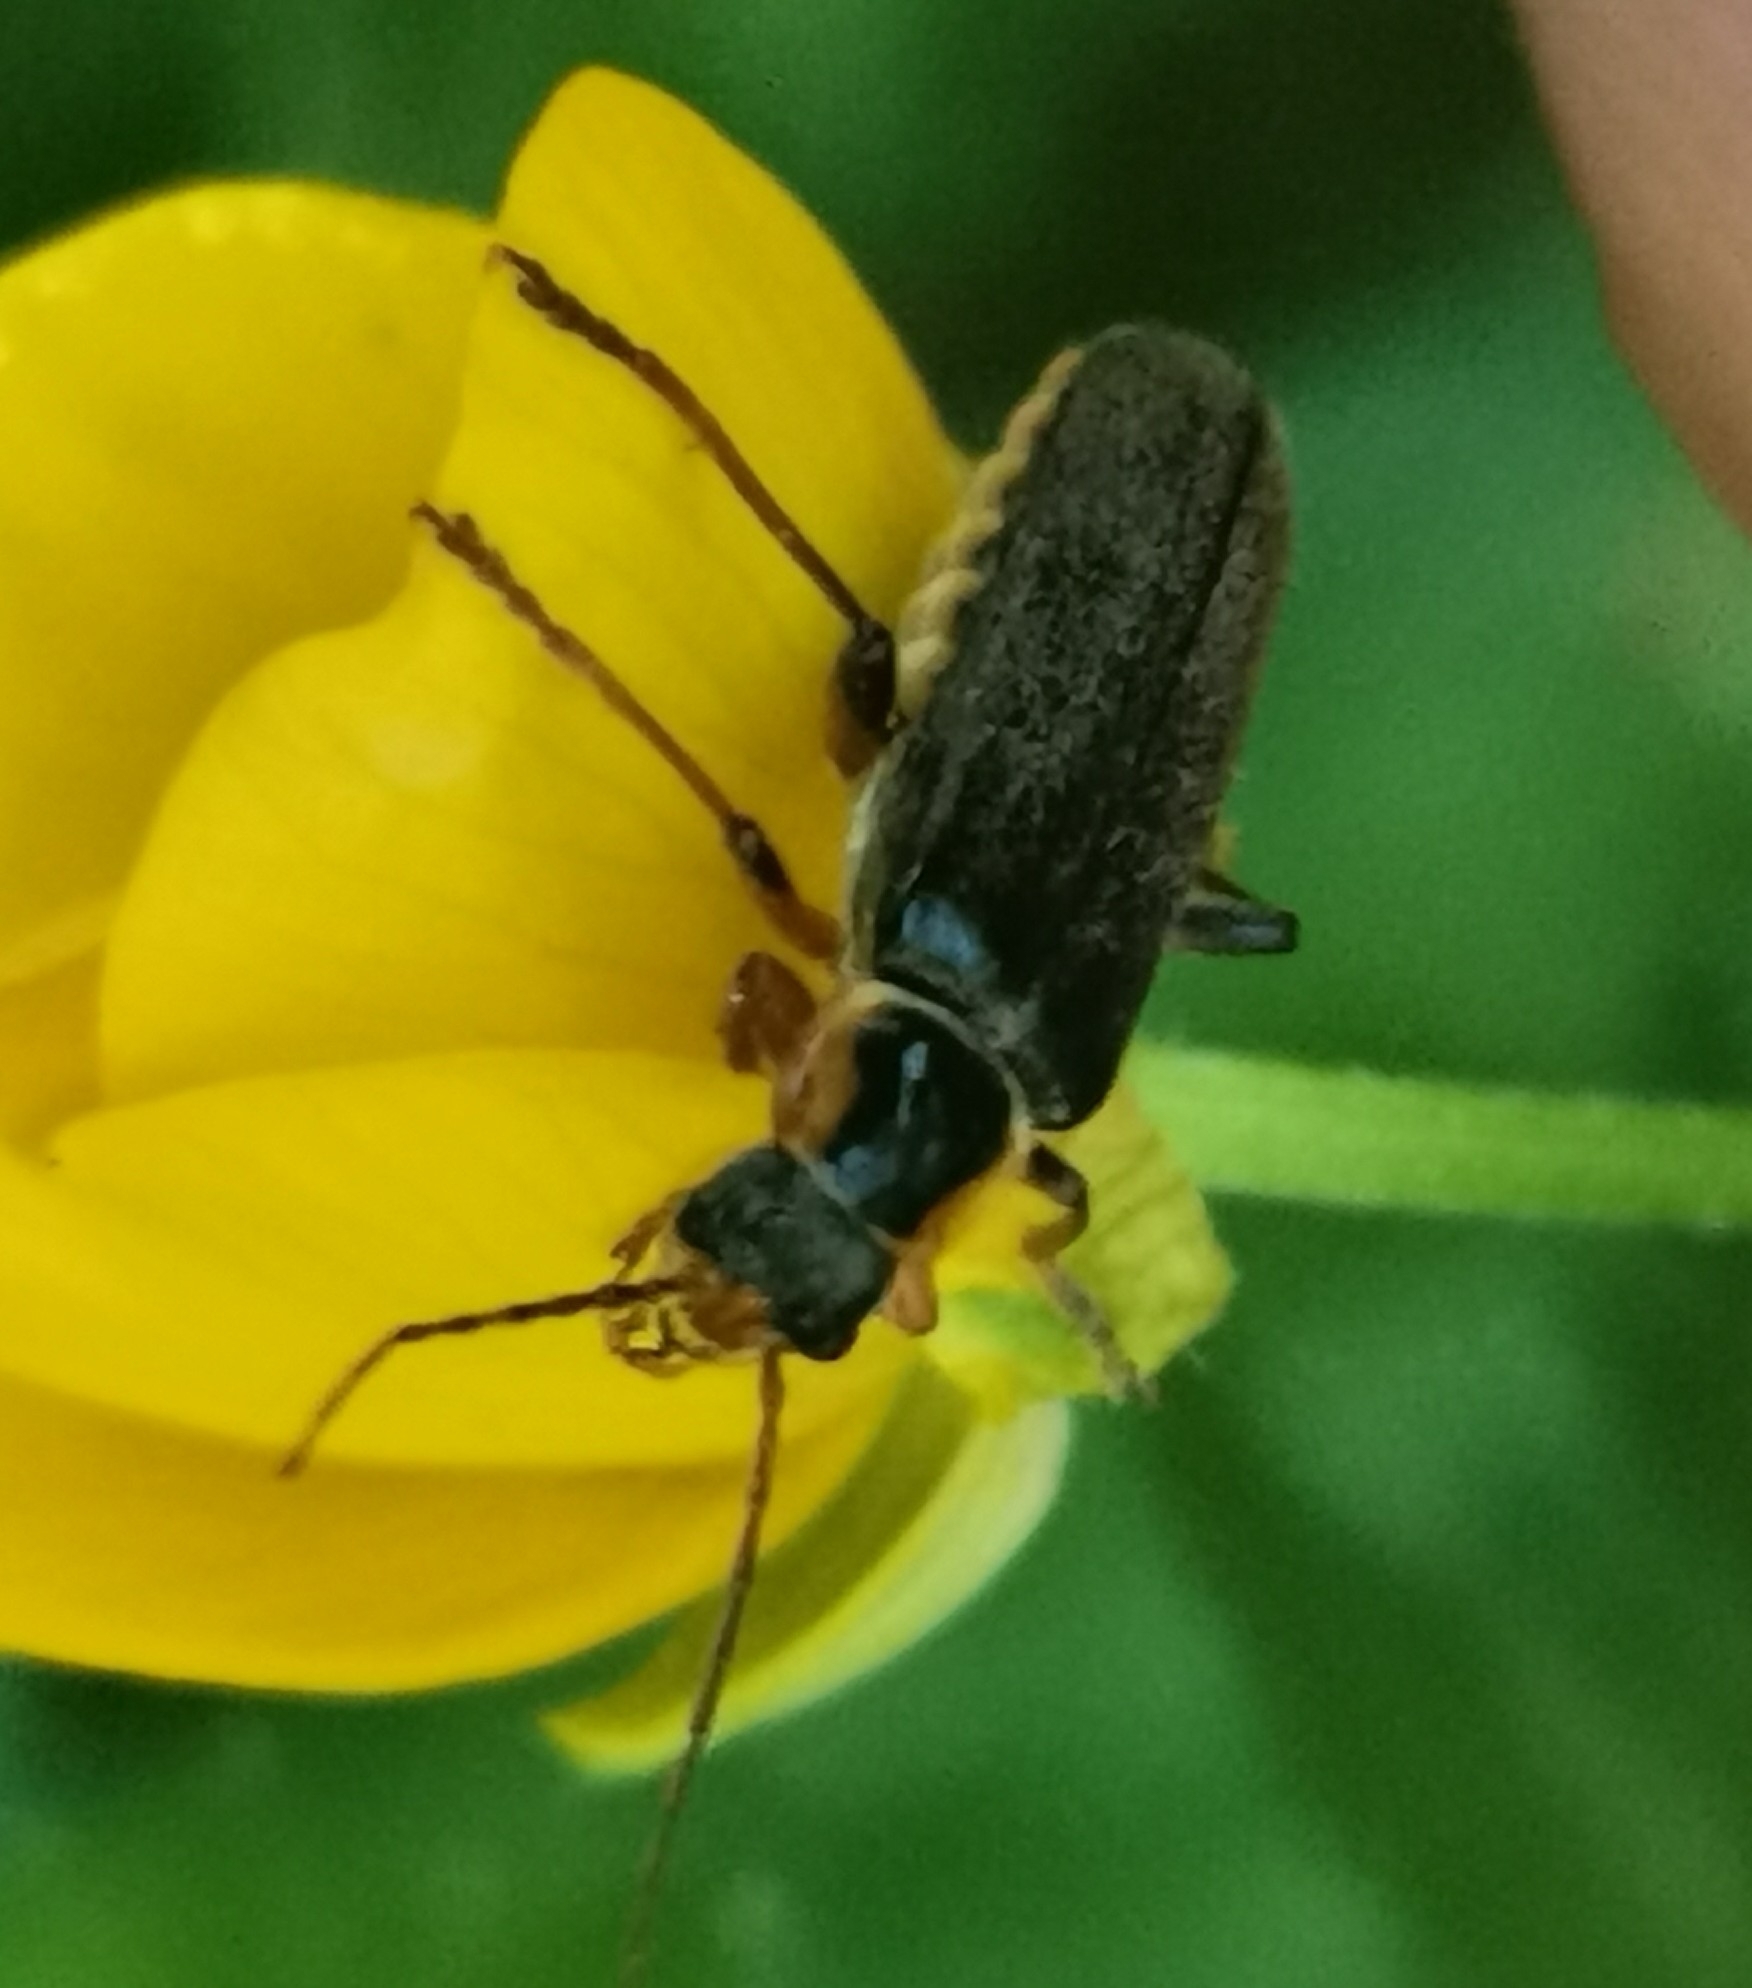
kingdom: Animalia
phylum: Arthropoda
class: Insecta
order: Coleoptera
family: Cantharidae
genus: Cantharis
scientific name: Cantharis nigricans
